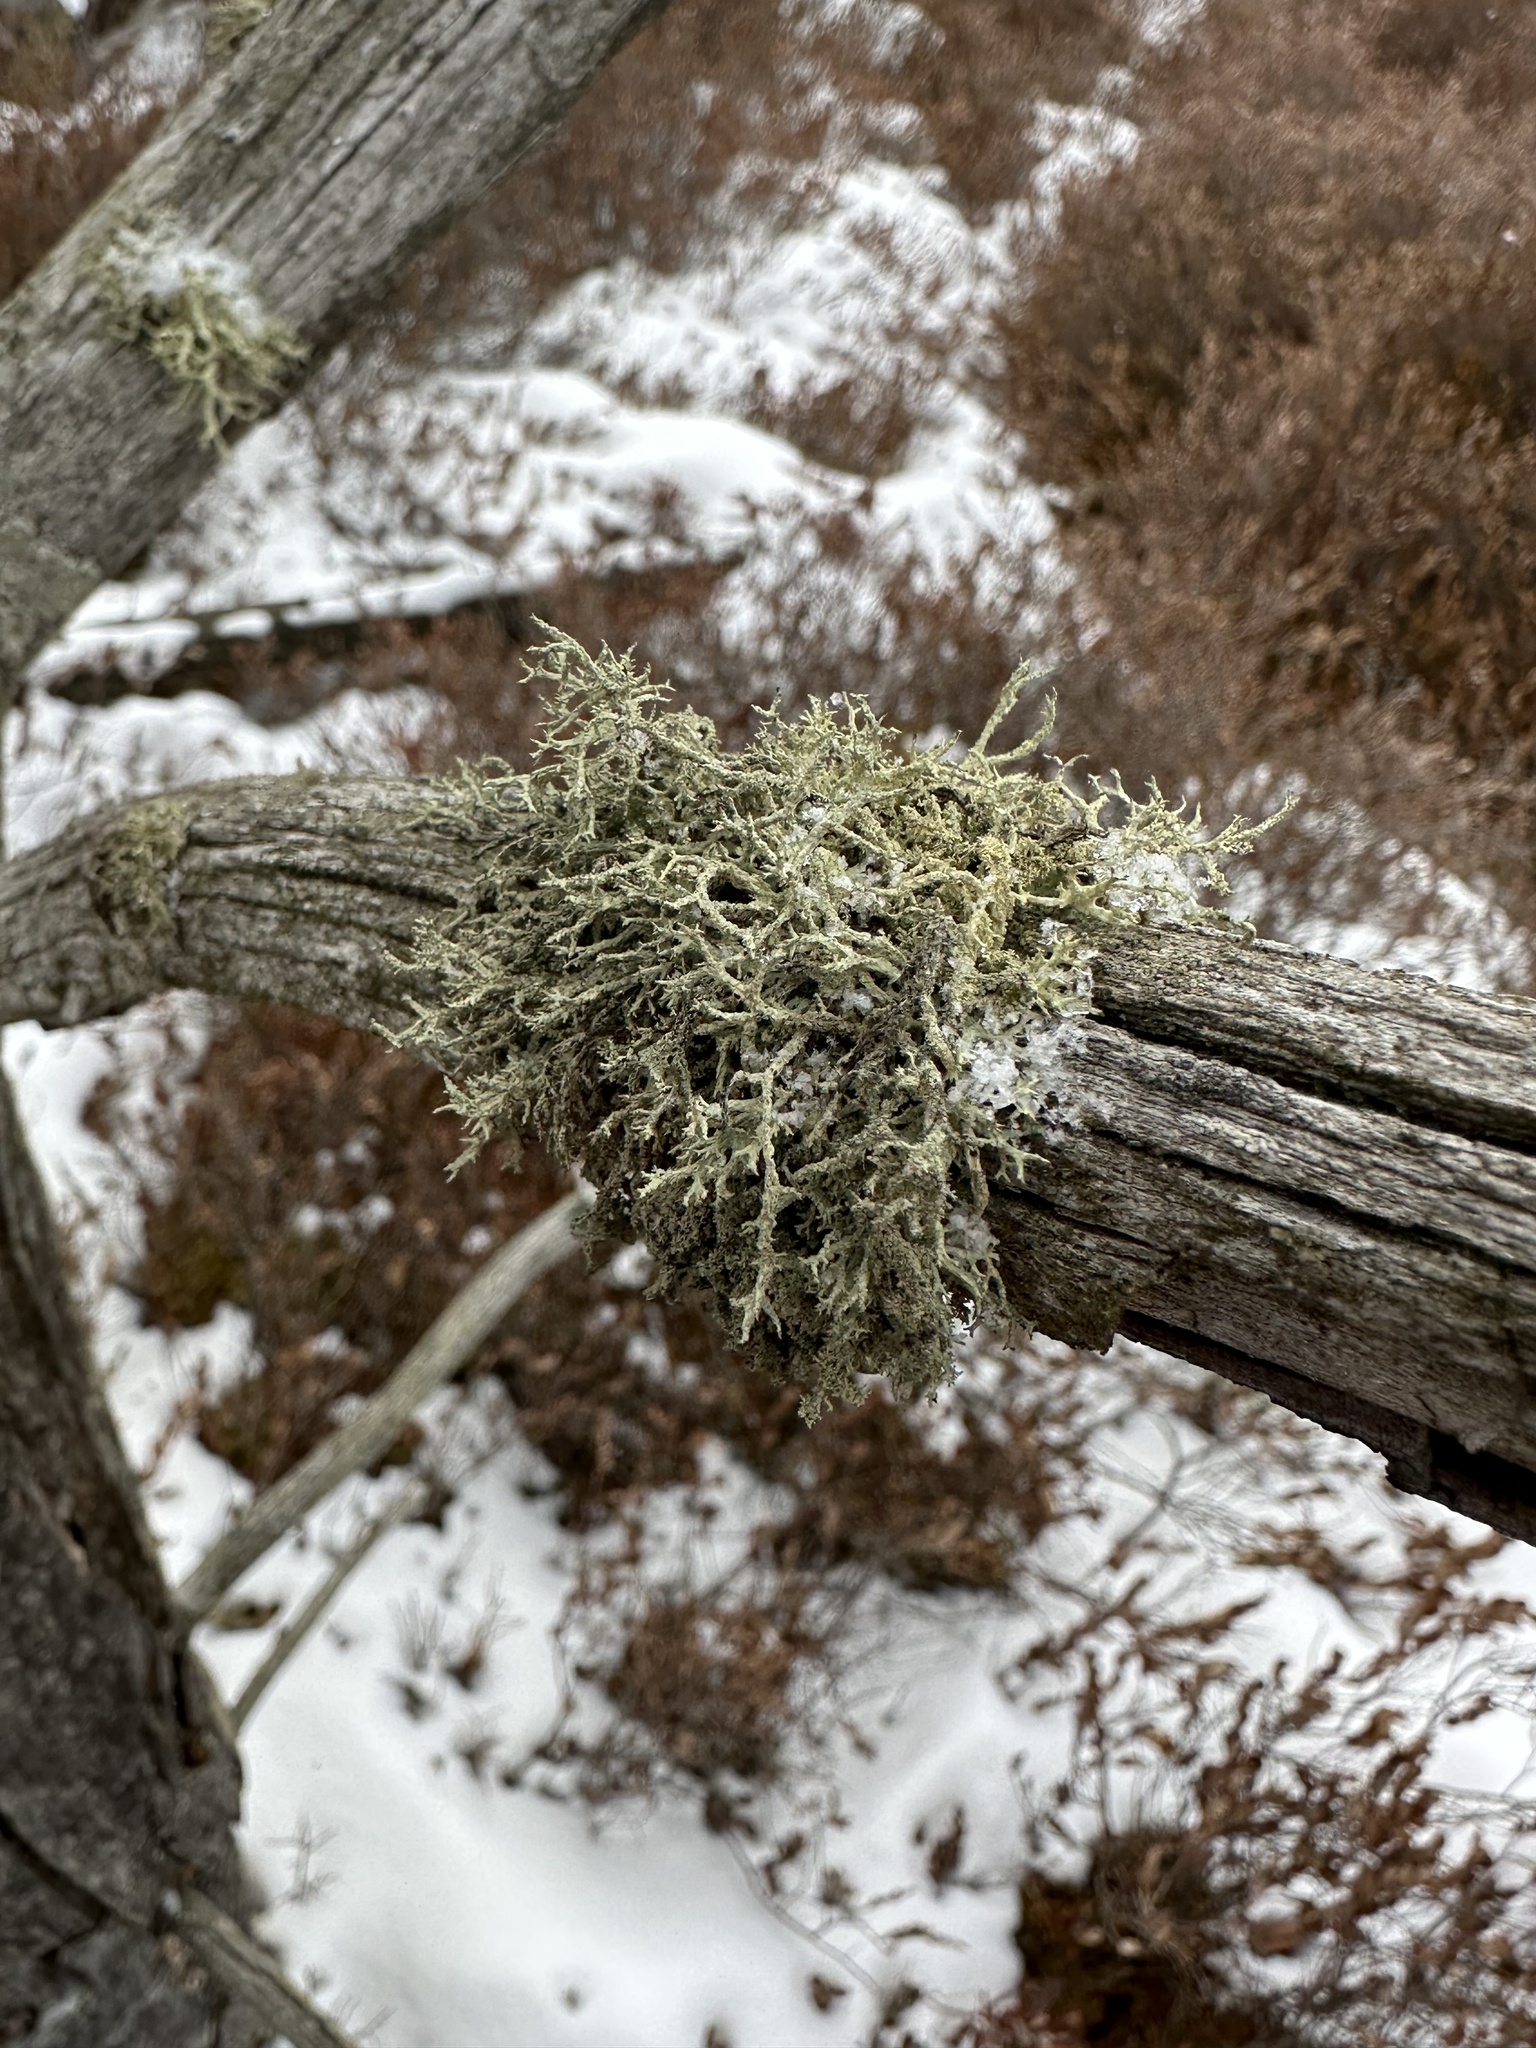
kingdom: Fungi
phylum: Ascomycota
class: Lecanoromycetes
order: Lecanorales
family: Parmeliaceae
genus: Evernia
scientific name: Evernia mesomorpha
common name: Boreal oak moss lichen
